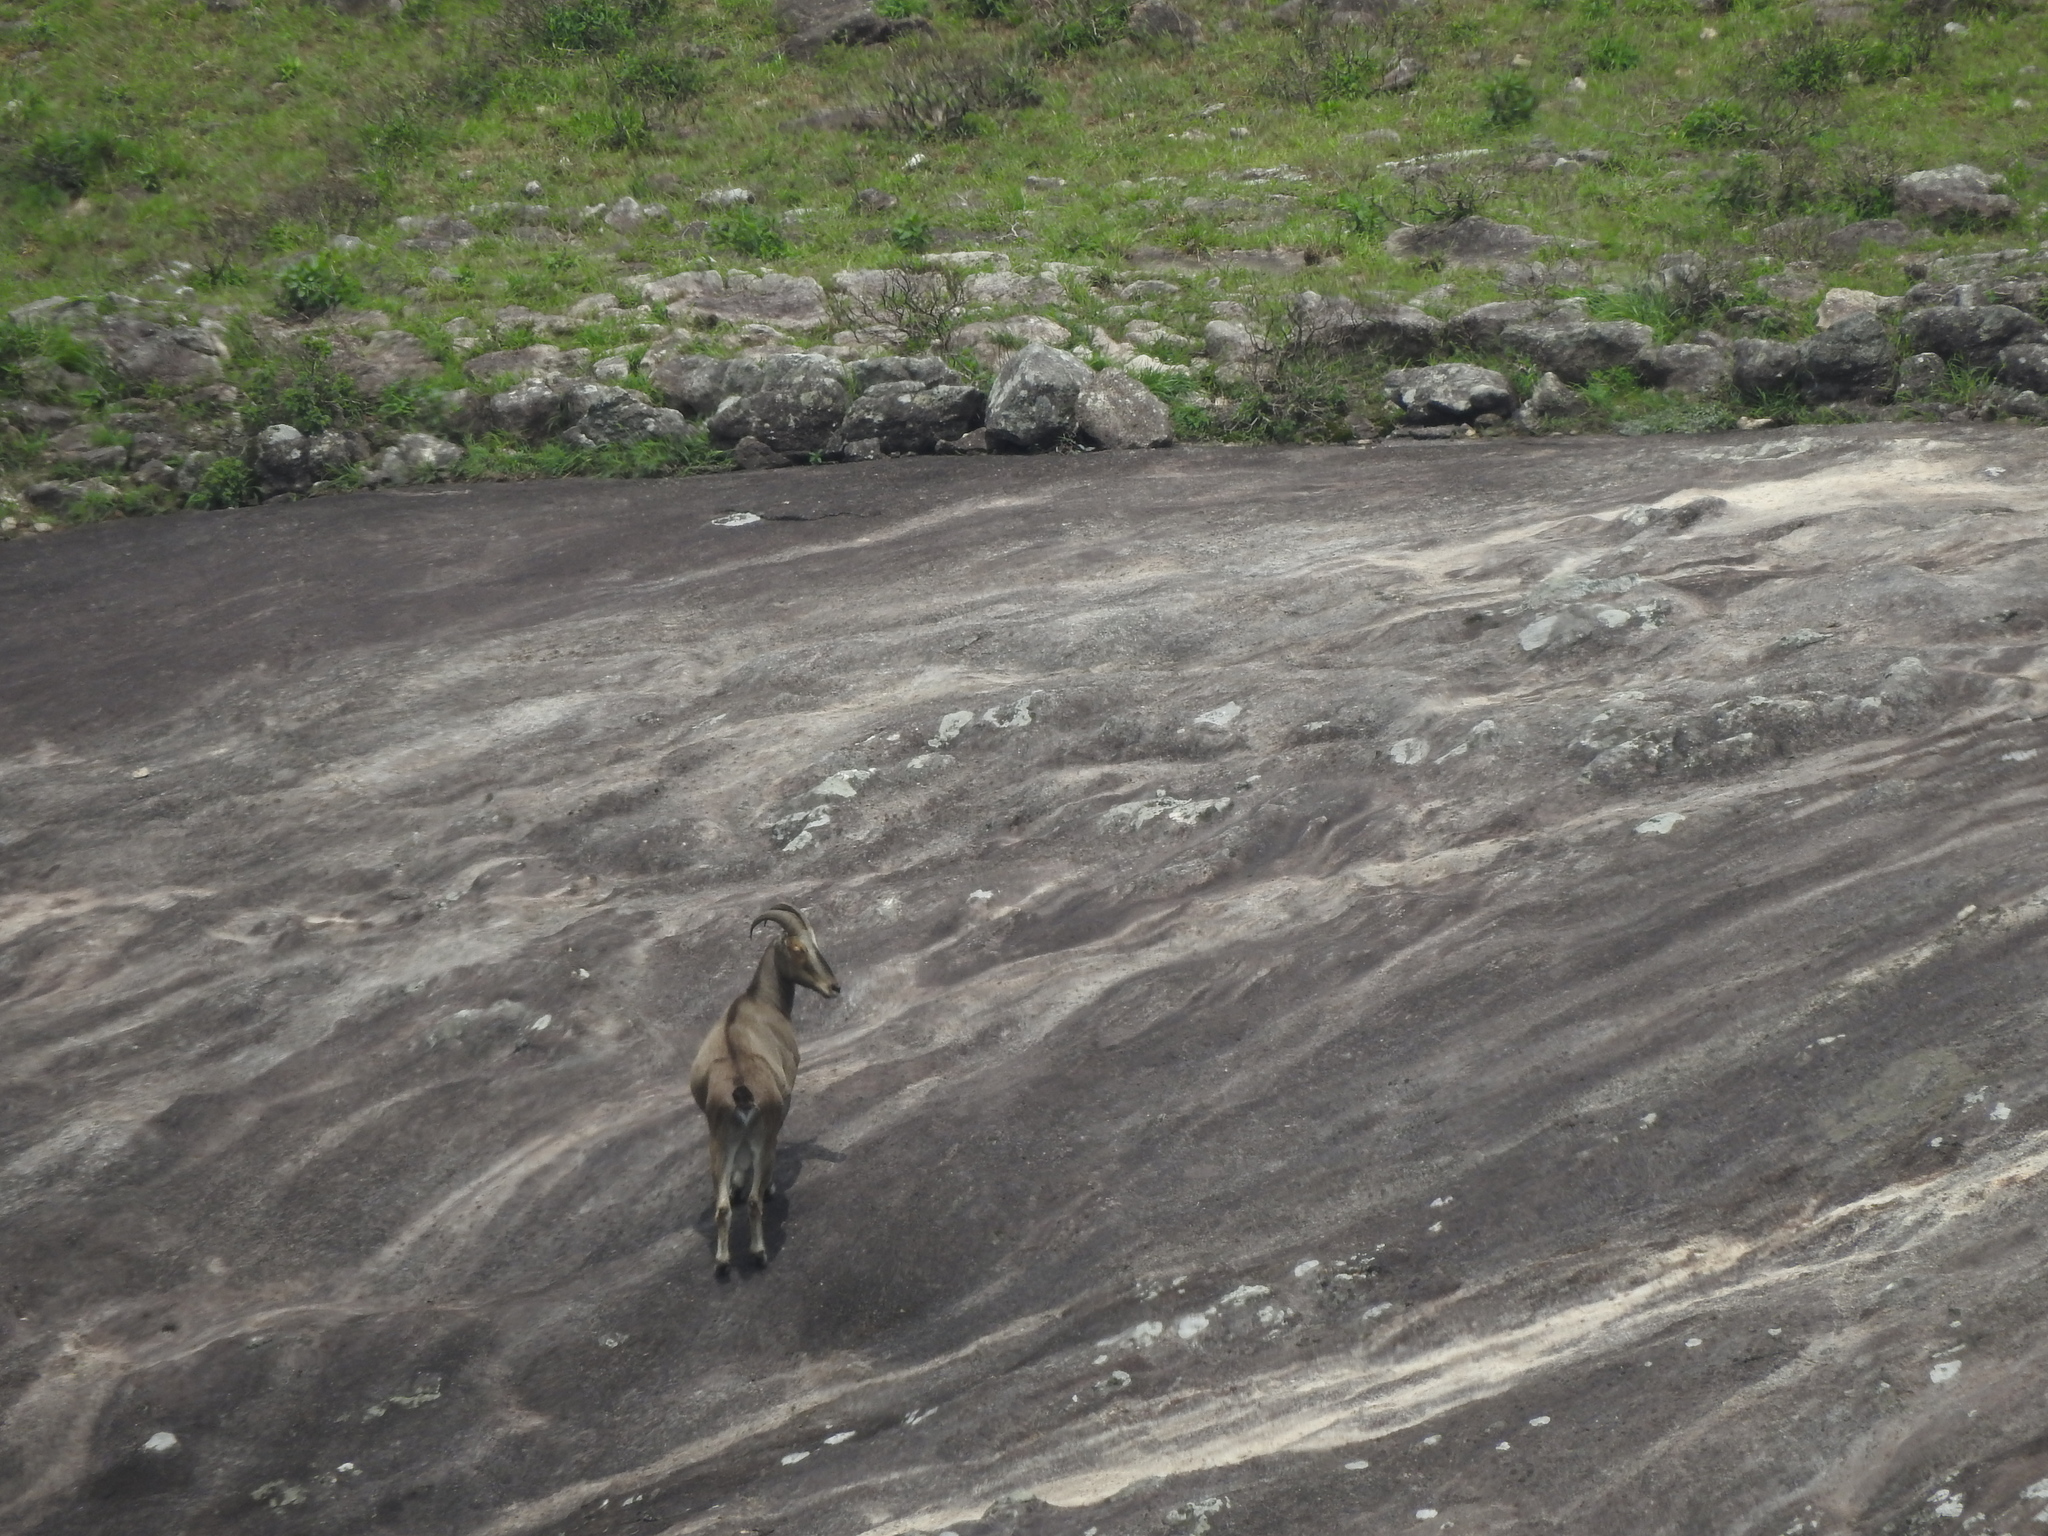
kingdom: Animalia
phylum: Chordata
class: Mammalia
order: Artiodactyla
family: Bovidae
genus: Hemitragus
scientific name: Hemitragus hylocrius
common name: Nilgiri tahr
